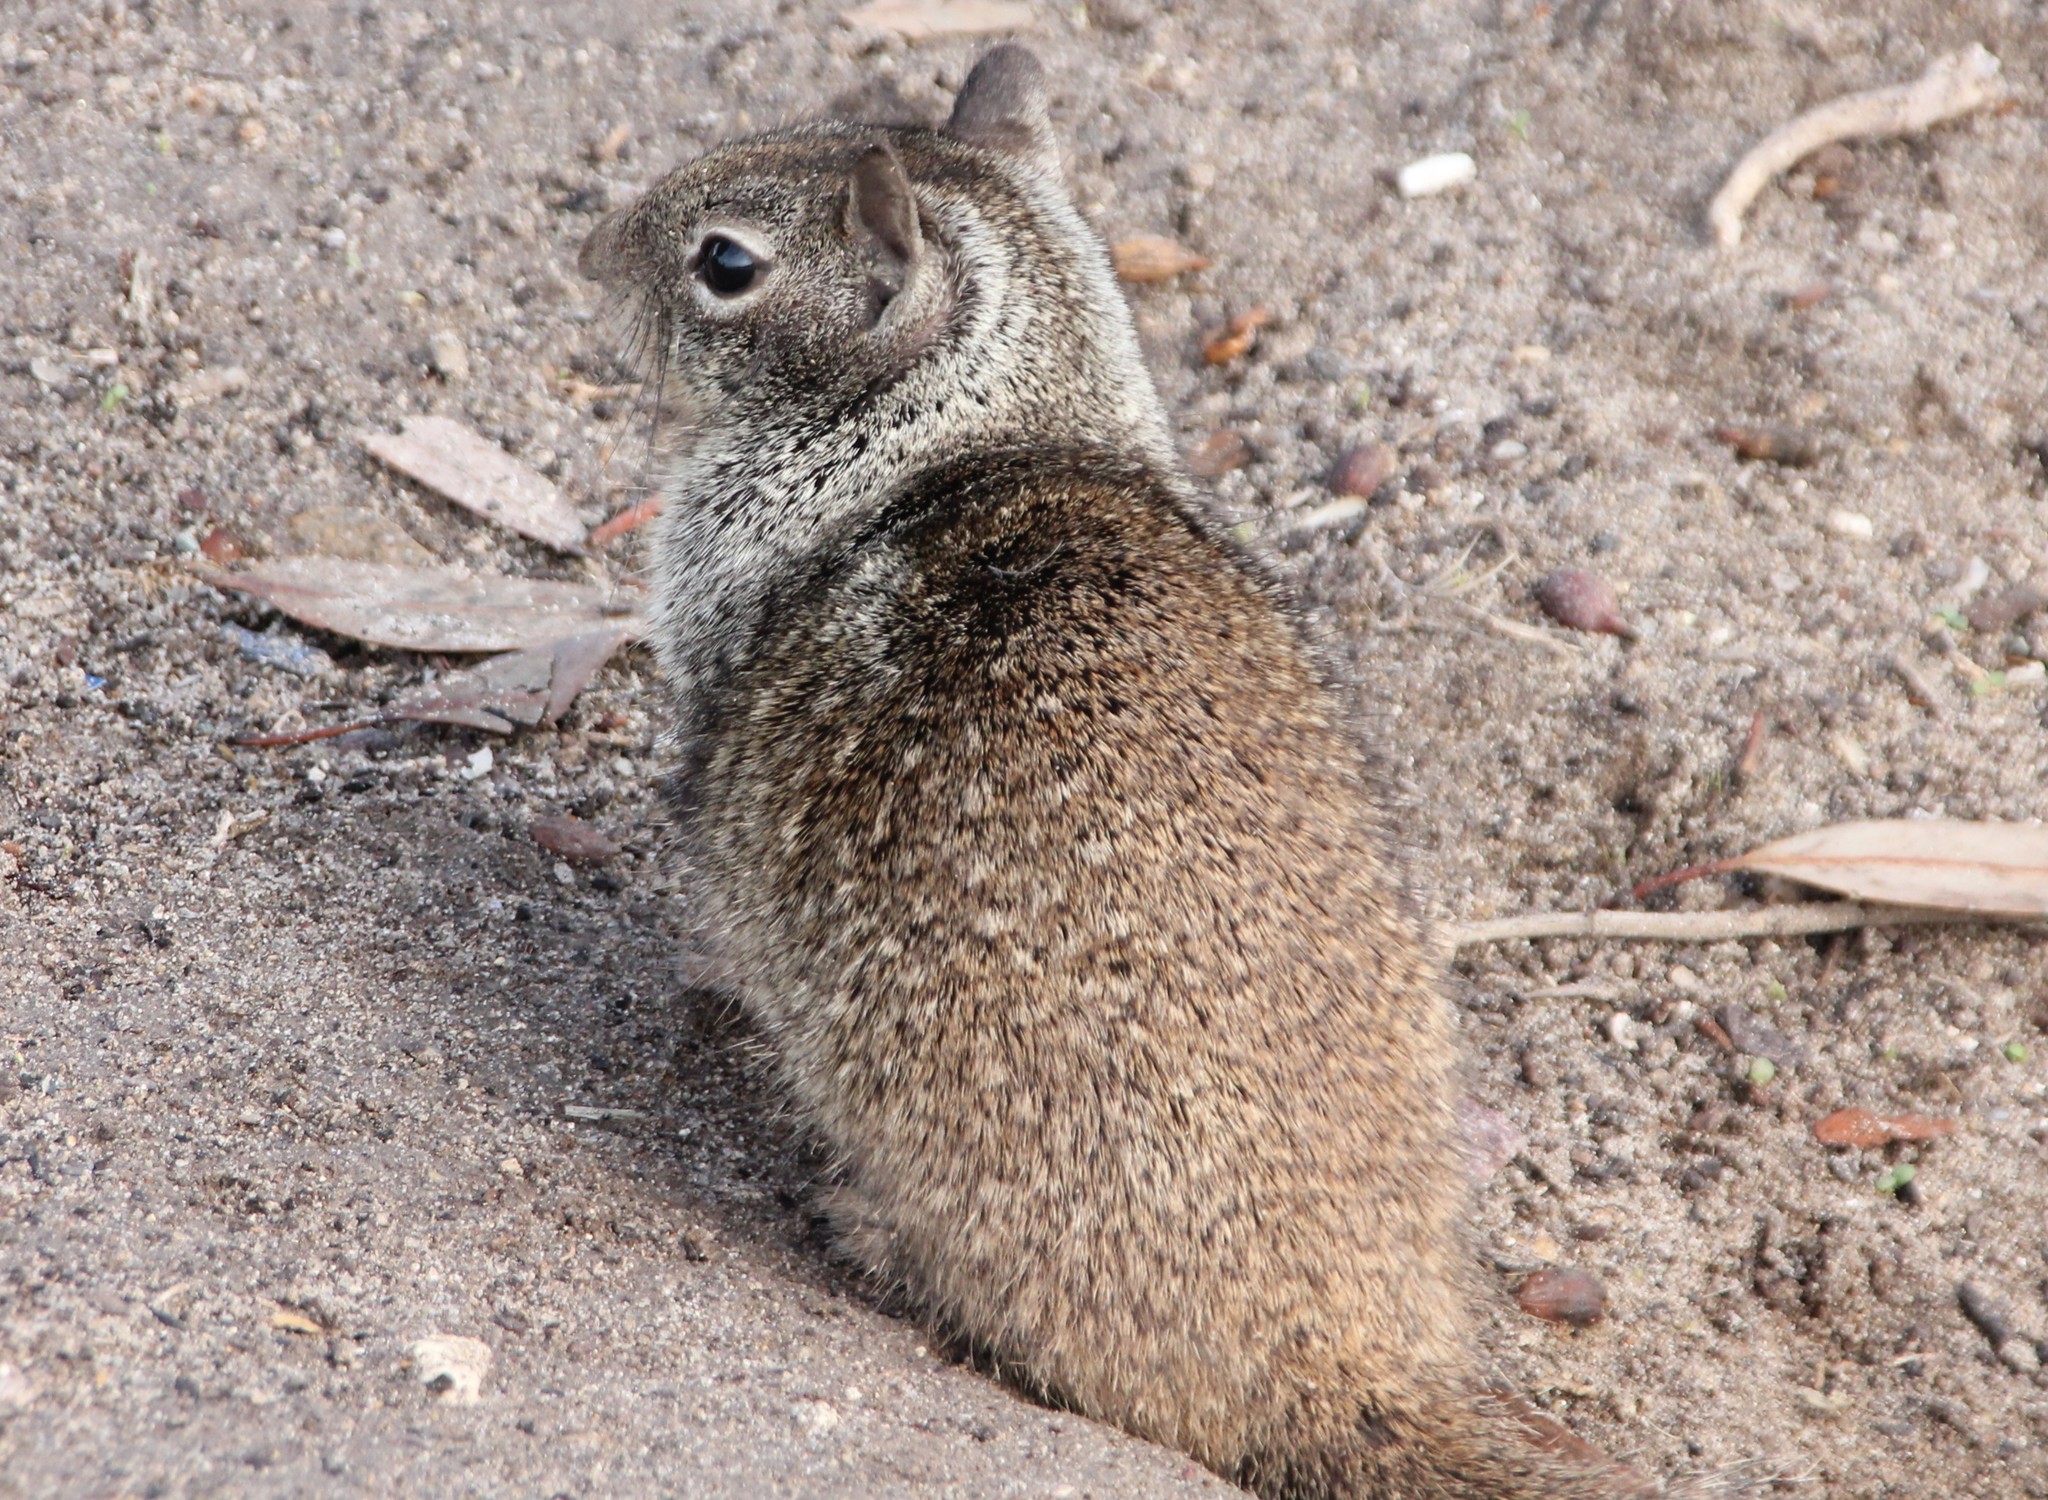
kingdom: Animalia
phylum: Chordata
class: Mammalia
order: Rodentia
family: Sciuridae
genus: Otospermophilus
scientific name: Otospermophilus beecheyi
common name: California ground squirrel
